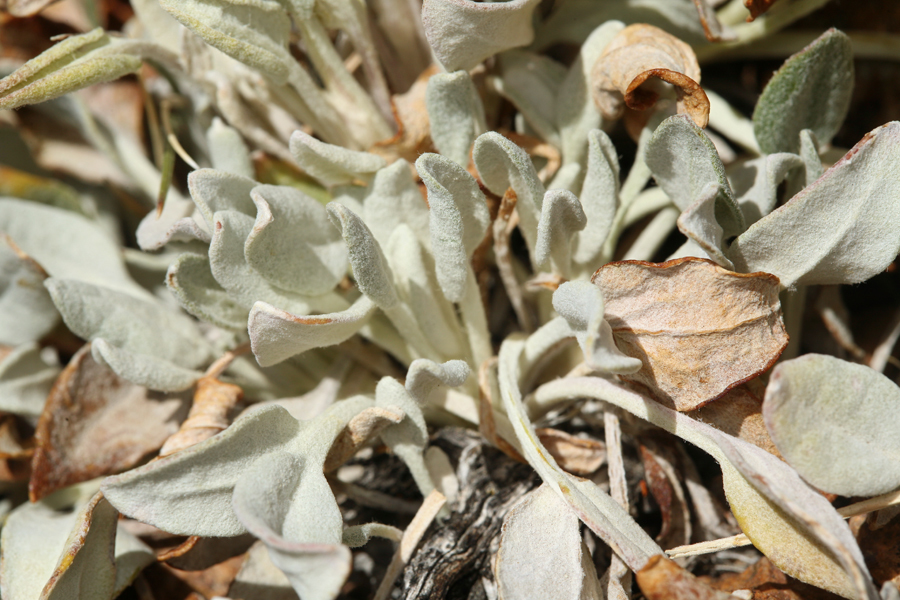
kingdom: Plantae
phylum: Tracheophyta
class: Magnoliopsida
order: Asterales
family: Asteraceae
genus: Packera
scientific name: Packera cana
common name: Woolly groundsel
